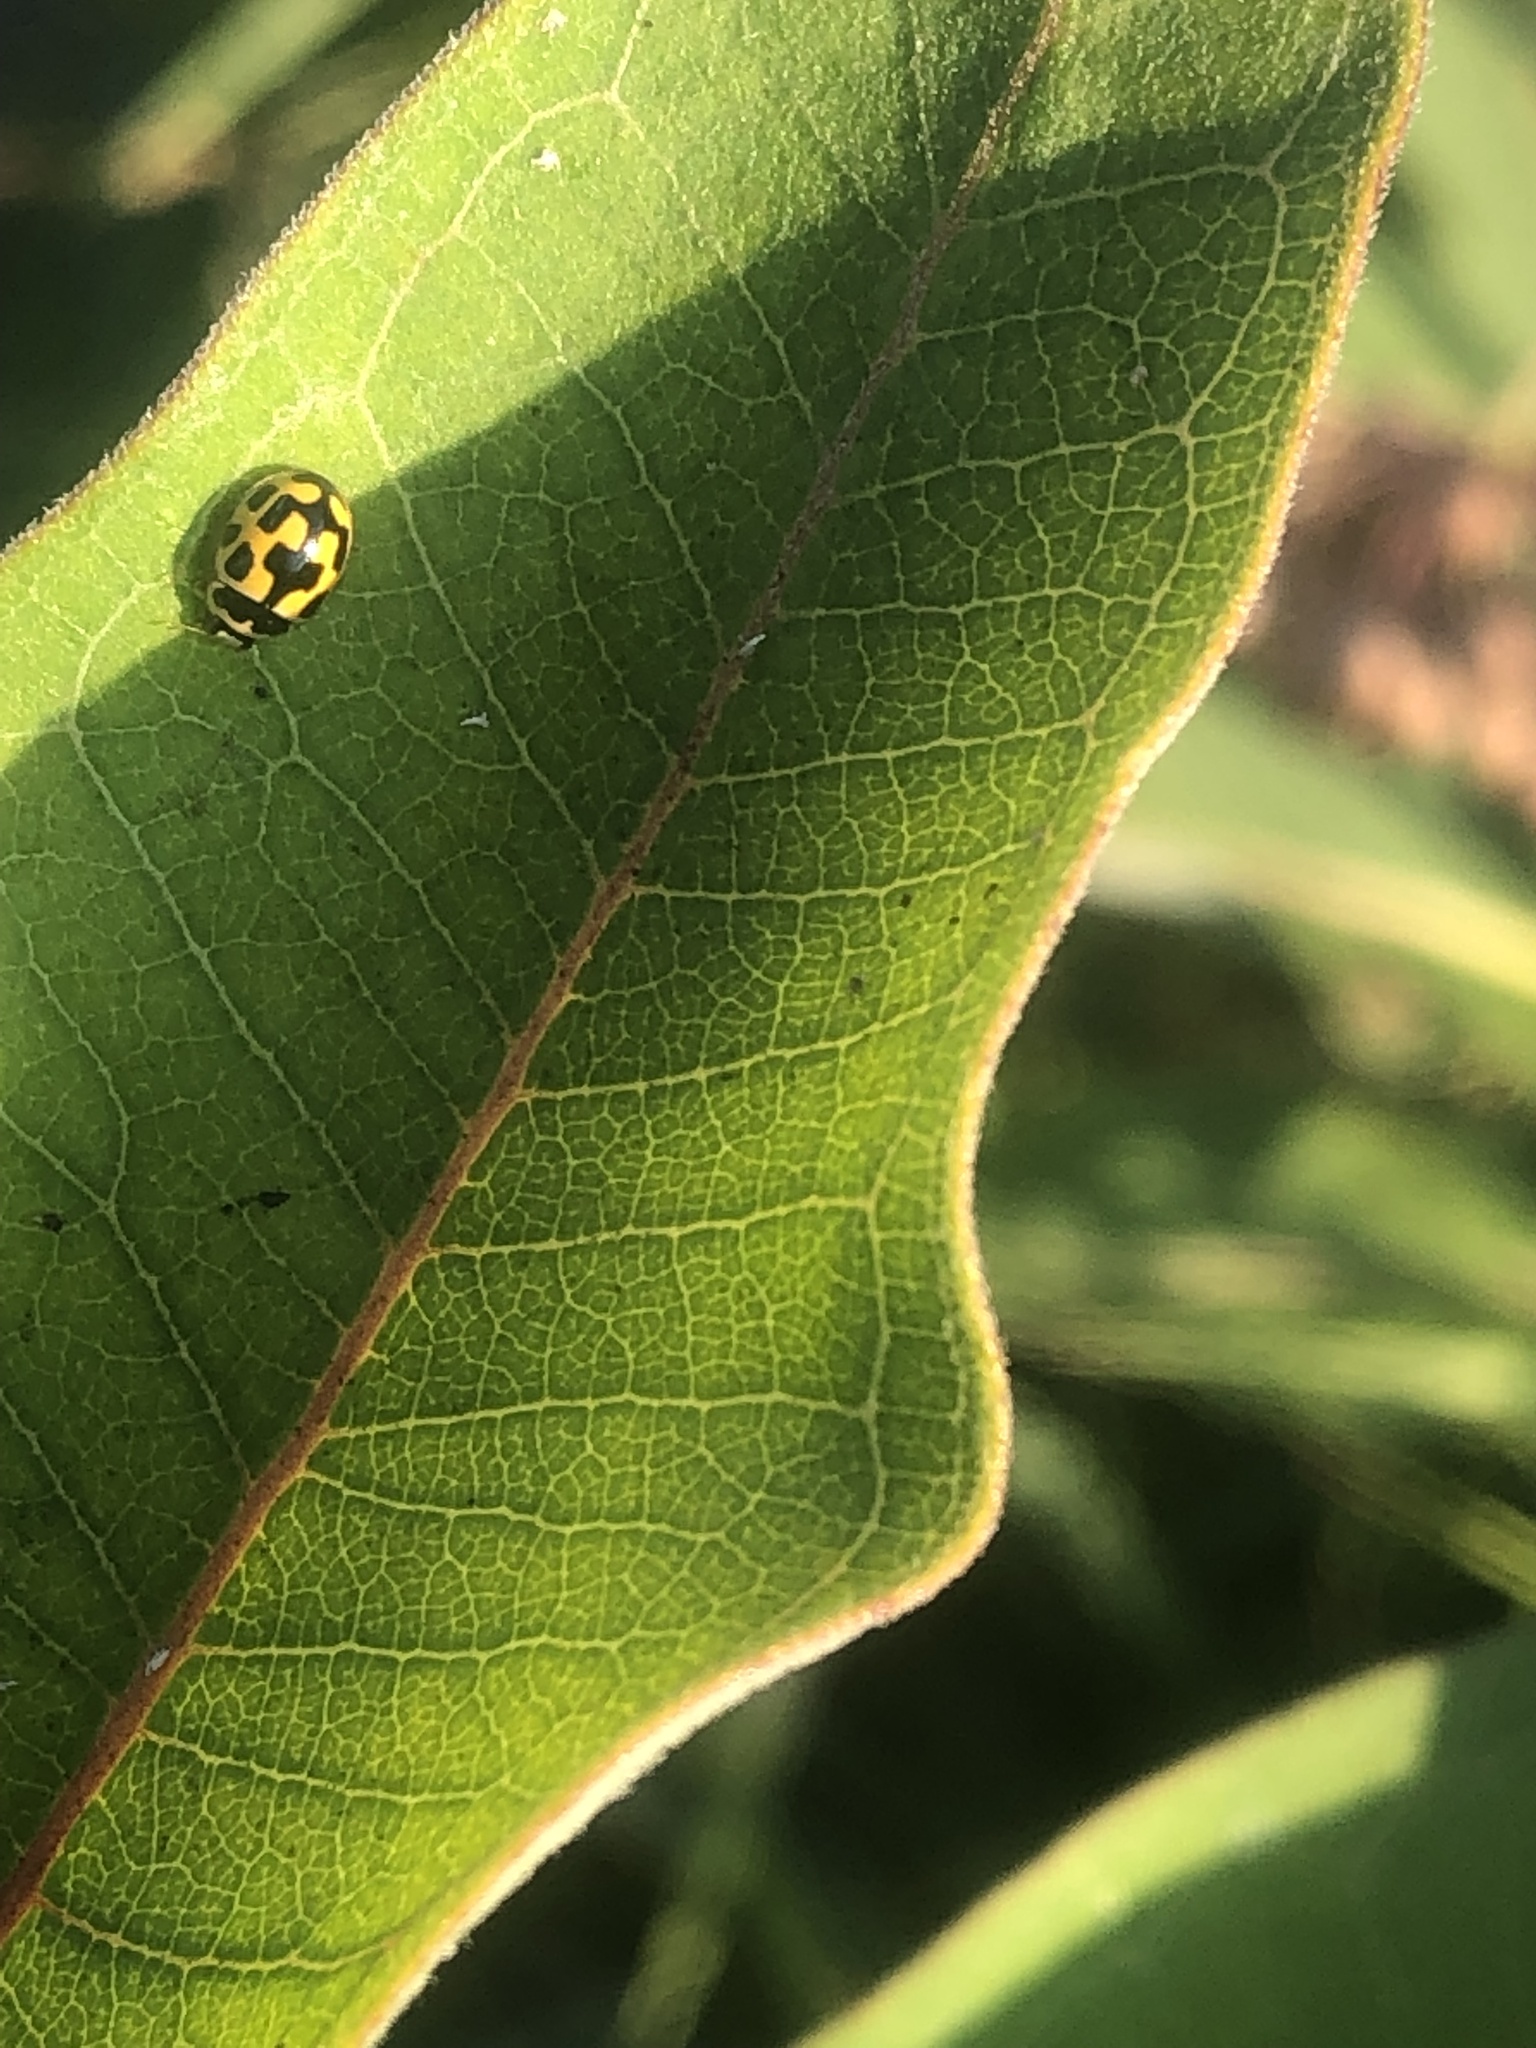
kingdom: Animalia
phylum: Arthropoda
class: Insecta
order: Coleoptera
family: Coccinellidae
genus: Propylaea
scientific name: Propylaea quatuordecimpunctata
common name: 14-spotted ladybird beetle
